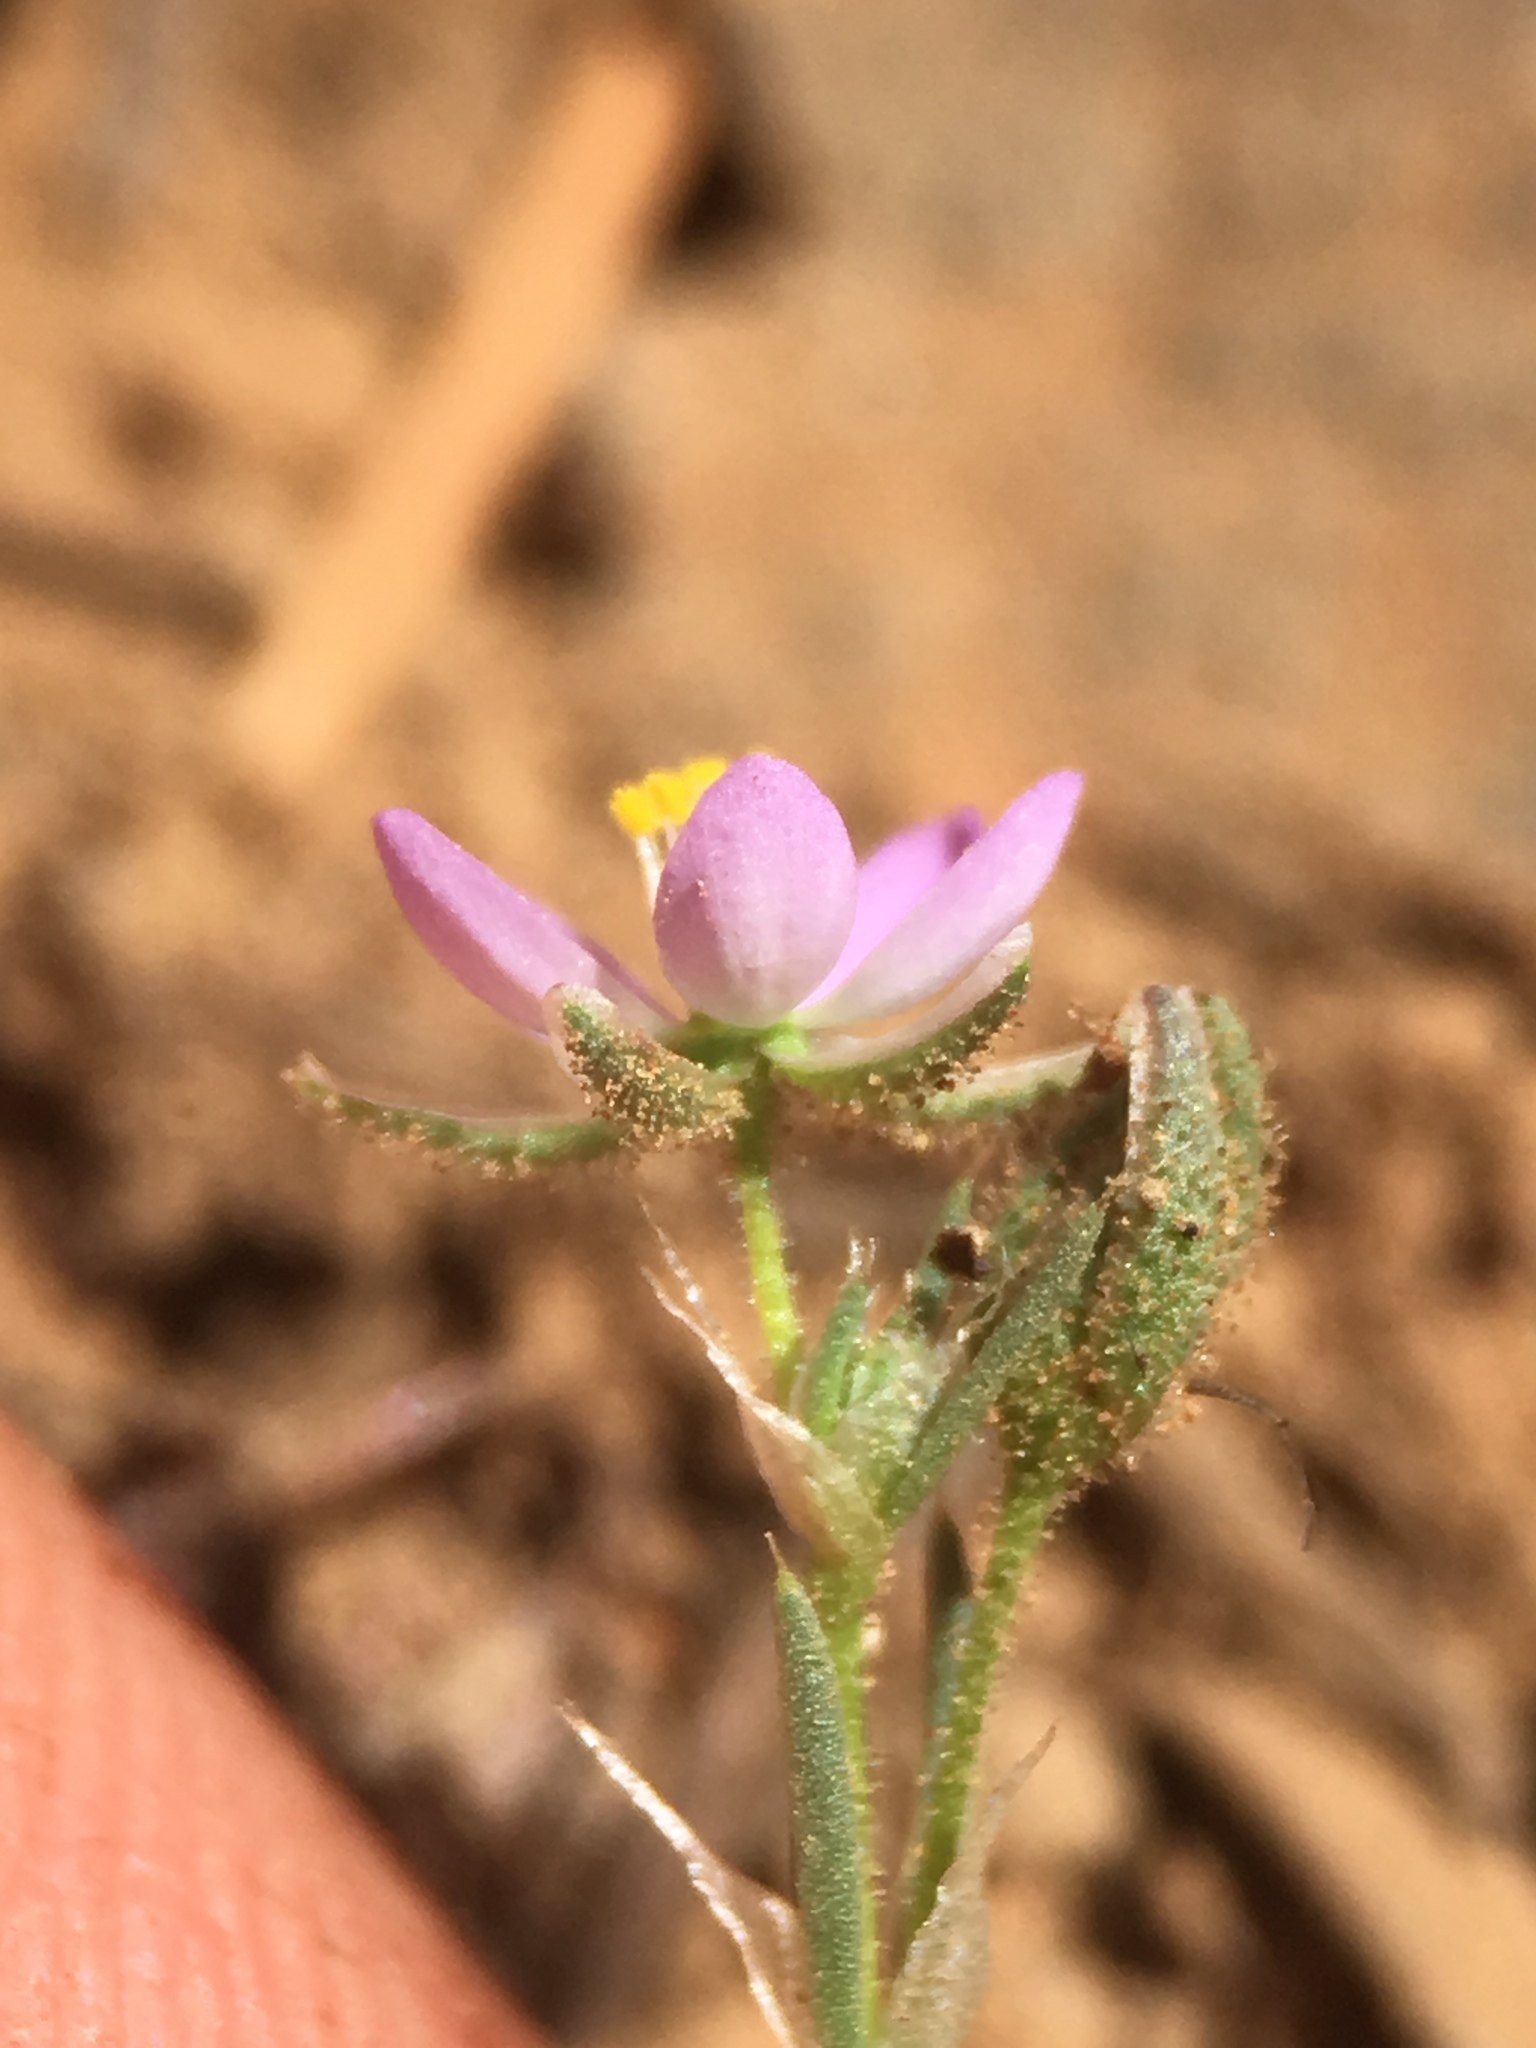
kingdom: Plantae
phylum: Tracheophyta
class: Magnoliopsida
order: Caryophyllales
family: Caryophyllaceae
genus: Spergularia
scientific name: Spergularia rubra
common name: Red sand-spurrey
